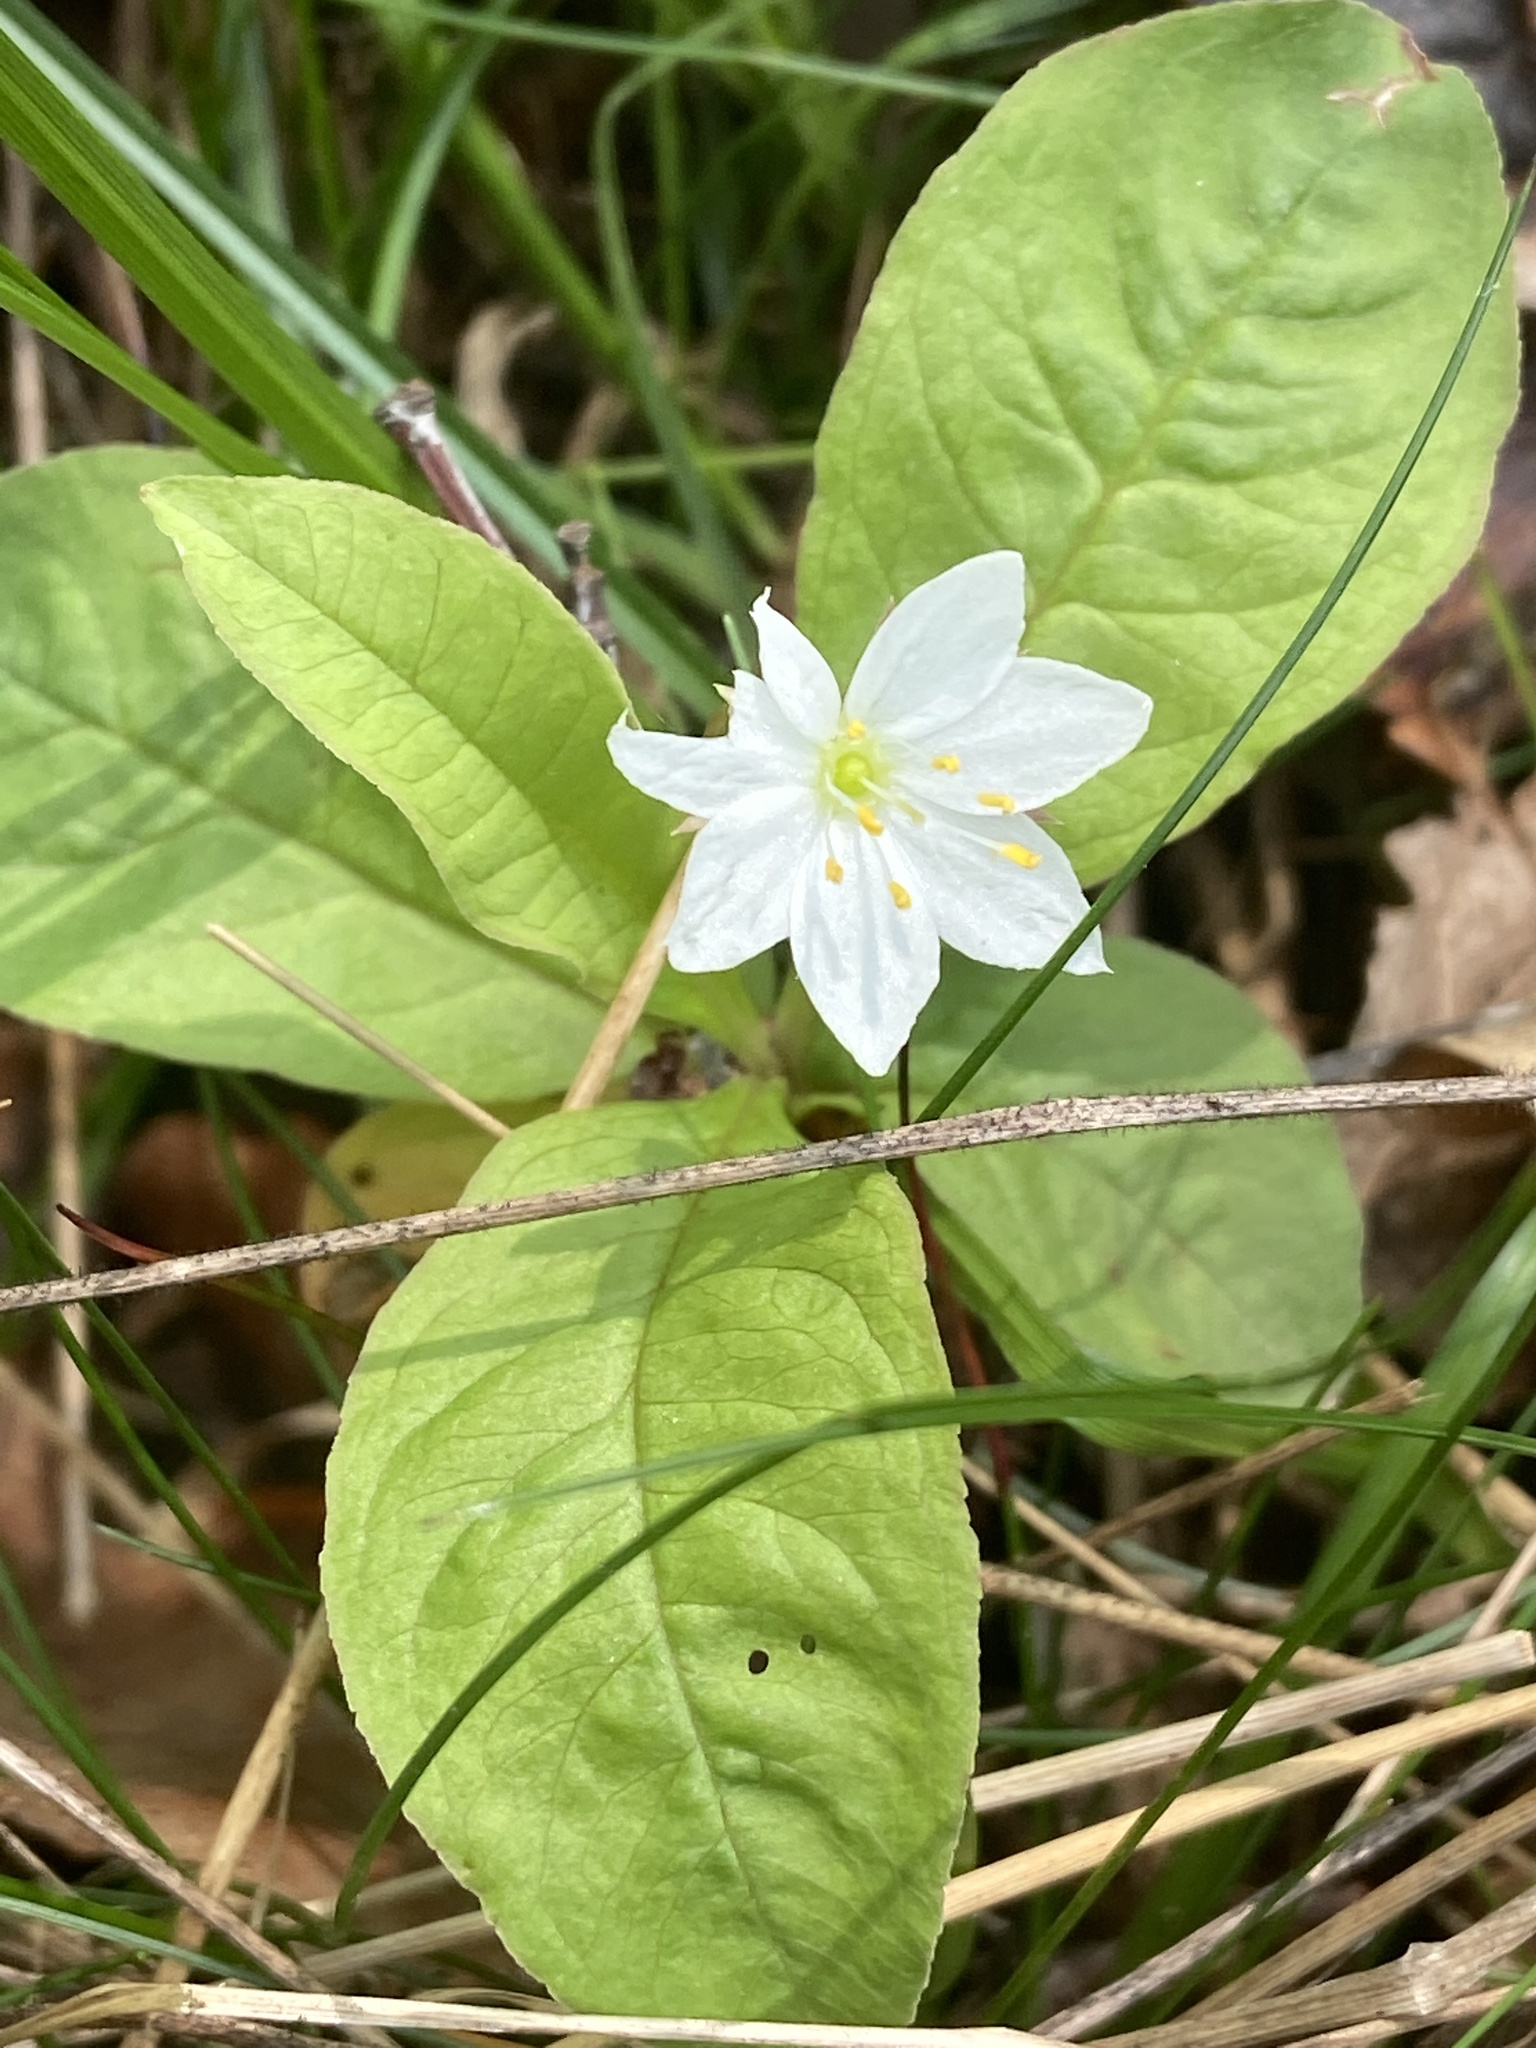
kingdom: Plantae
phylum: Tracheophyta
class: Magnoliopsida
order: Ericales
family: Primulaceae
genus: Lysimachia
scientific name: Lysimachia europaea
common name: Arctic starflower
